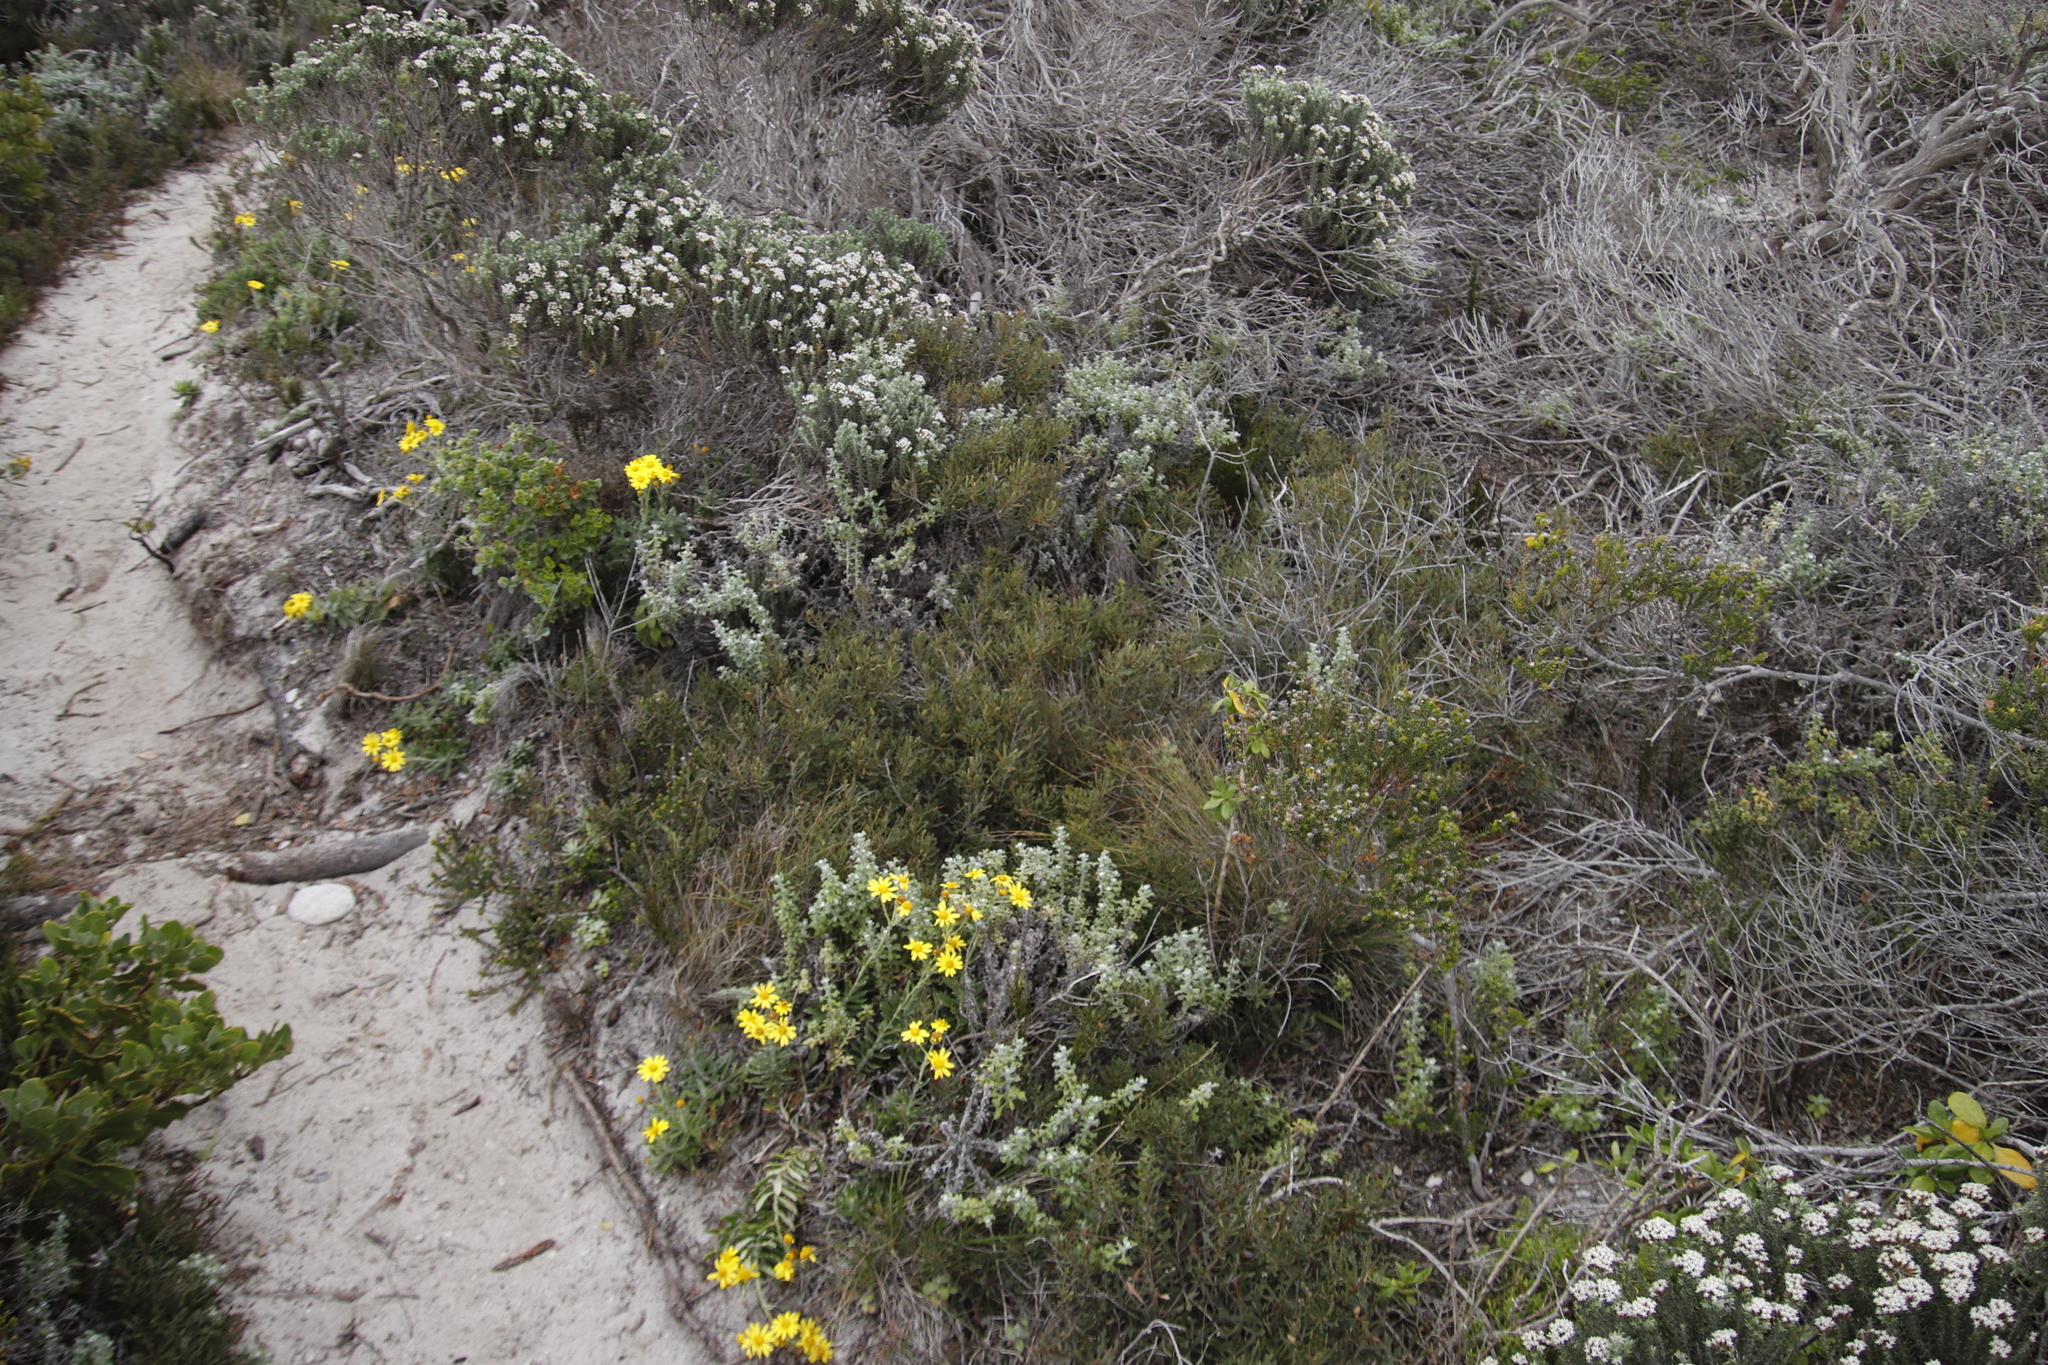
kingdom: Plantae
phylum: Tracheophyta
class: Magnoliopsida
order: Fagales
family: Myricaceae
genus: Morella
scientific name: Morella quercifolia
